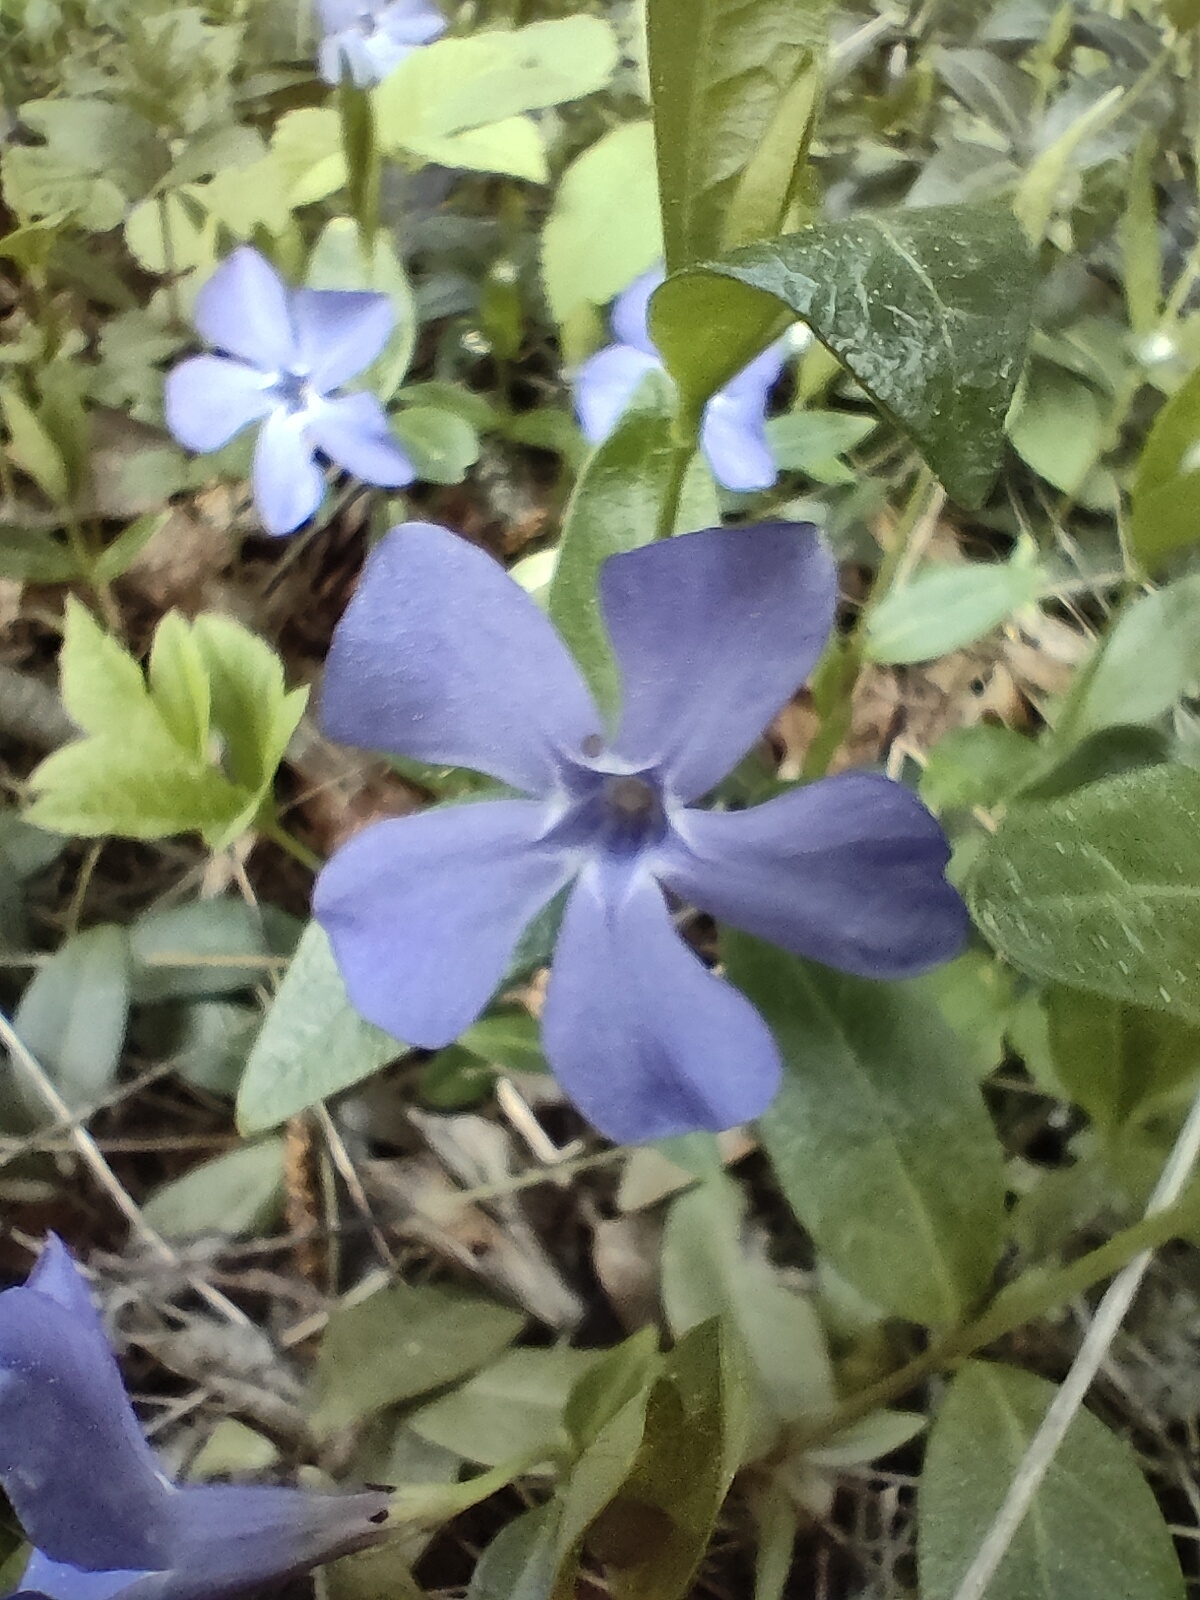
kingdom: Plantae
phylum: Tracheophyta
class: Magnoliopsida
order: Gentianales
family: Apocynaceae
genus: Vinca
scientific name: Vinca minor
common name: Lesser periwinkle
